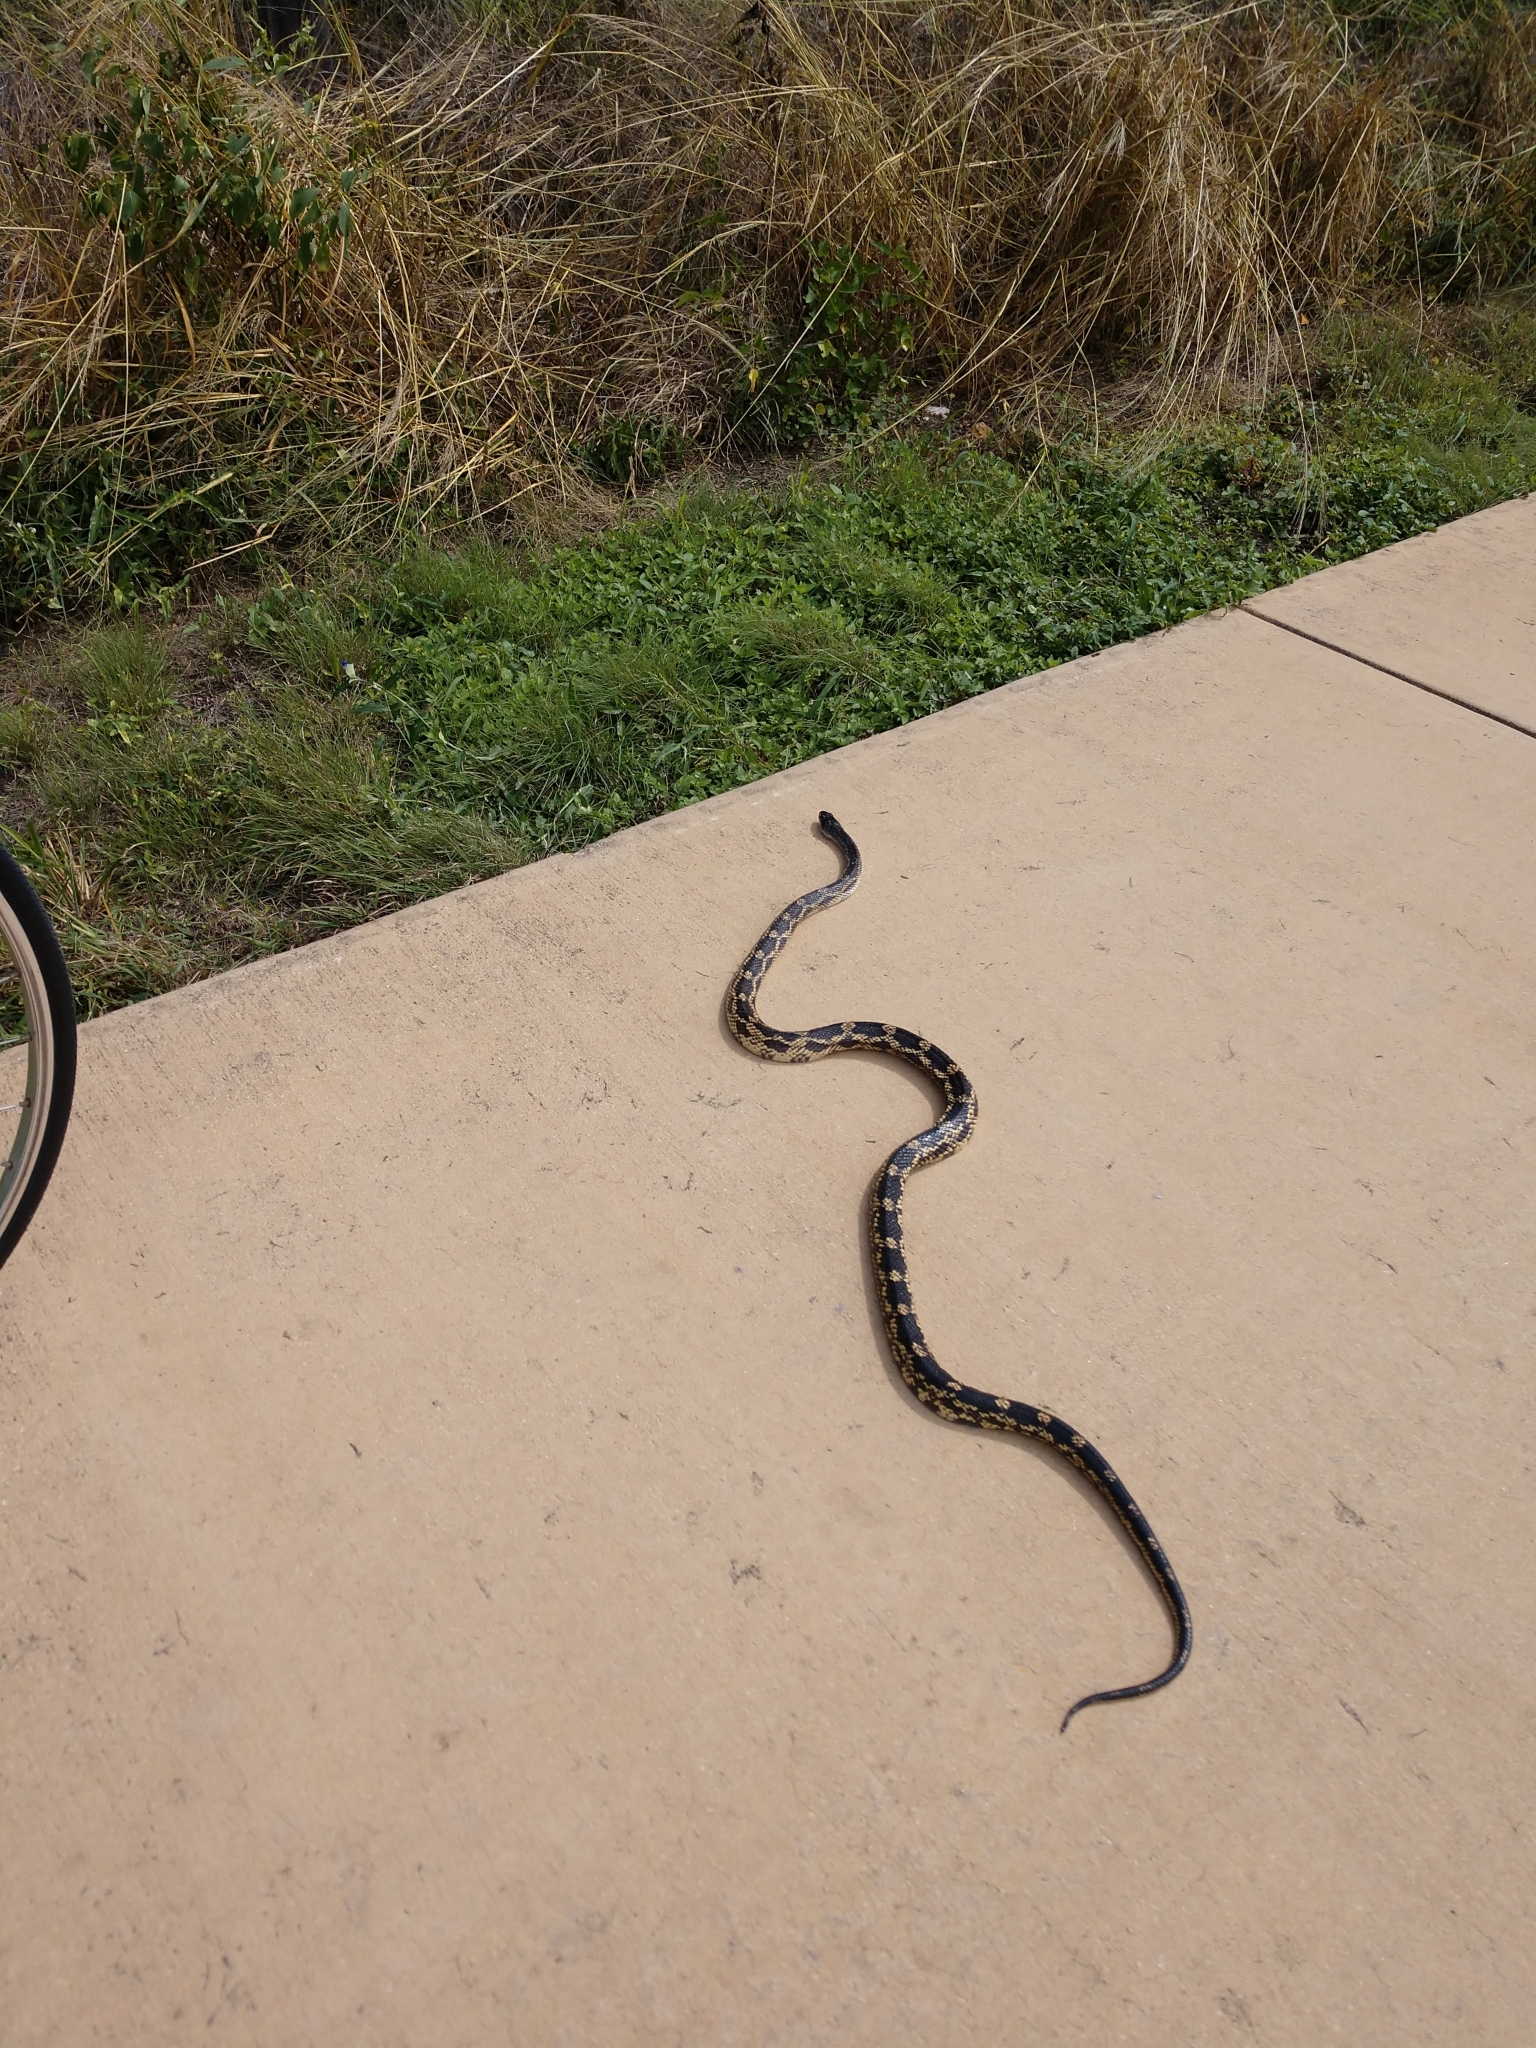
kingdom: Animalia
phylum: Chordata
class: Squamata
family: Colubridae
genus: Pantherophis
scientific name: Pantherophis obsoletus
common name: Black rat snake
